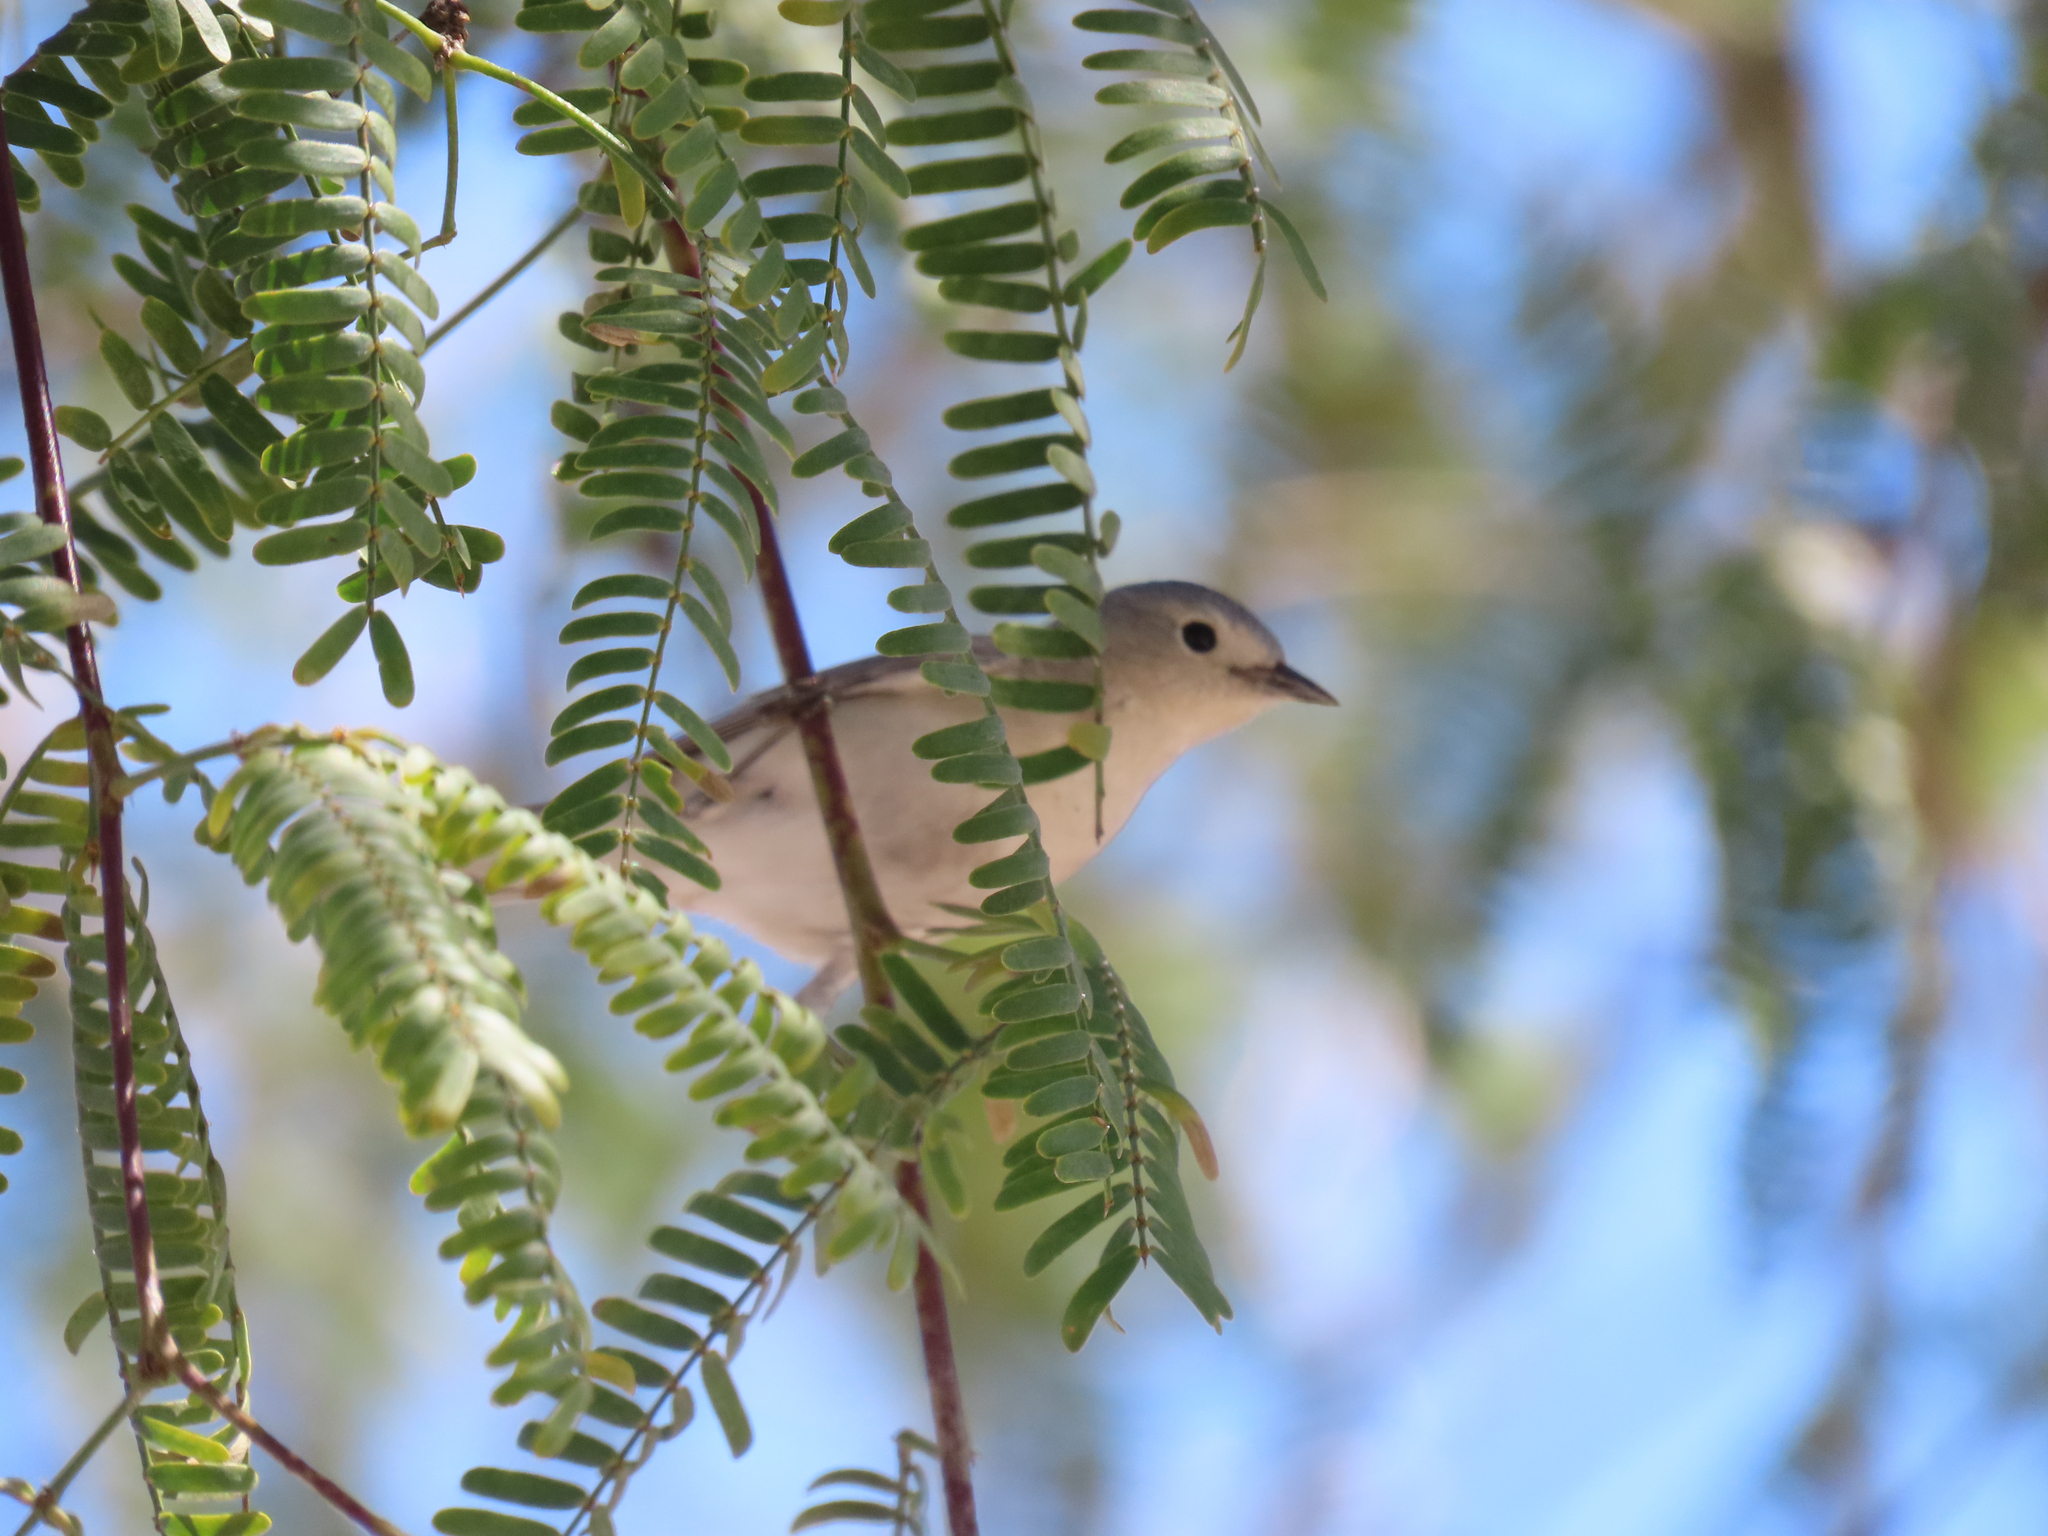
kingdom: Animalia
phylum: Chordata
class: Aves
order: Passeriformes
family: Parulidae
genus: Leiothlypis
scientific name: Leiothlypis luciae
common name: Lucy's warbler
